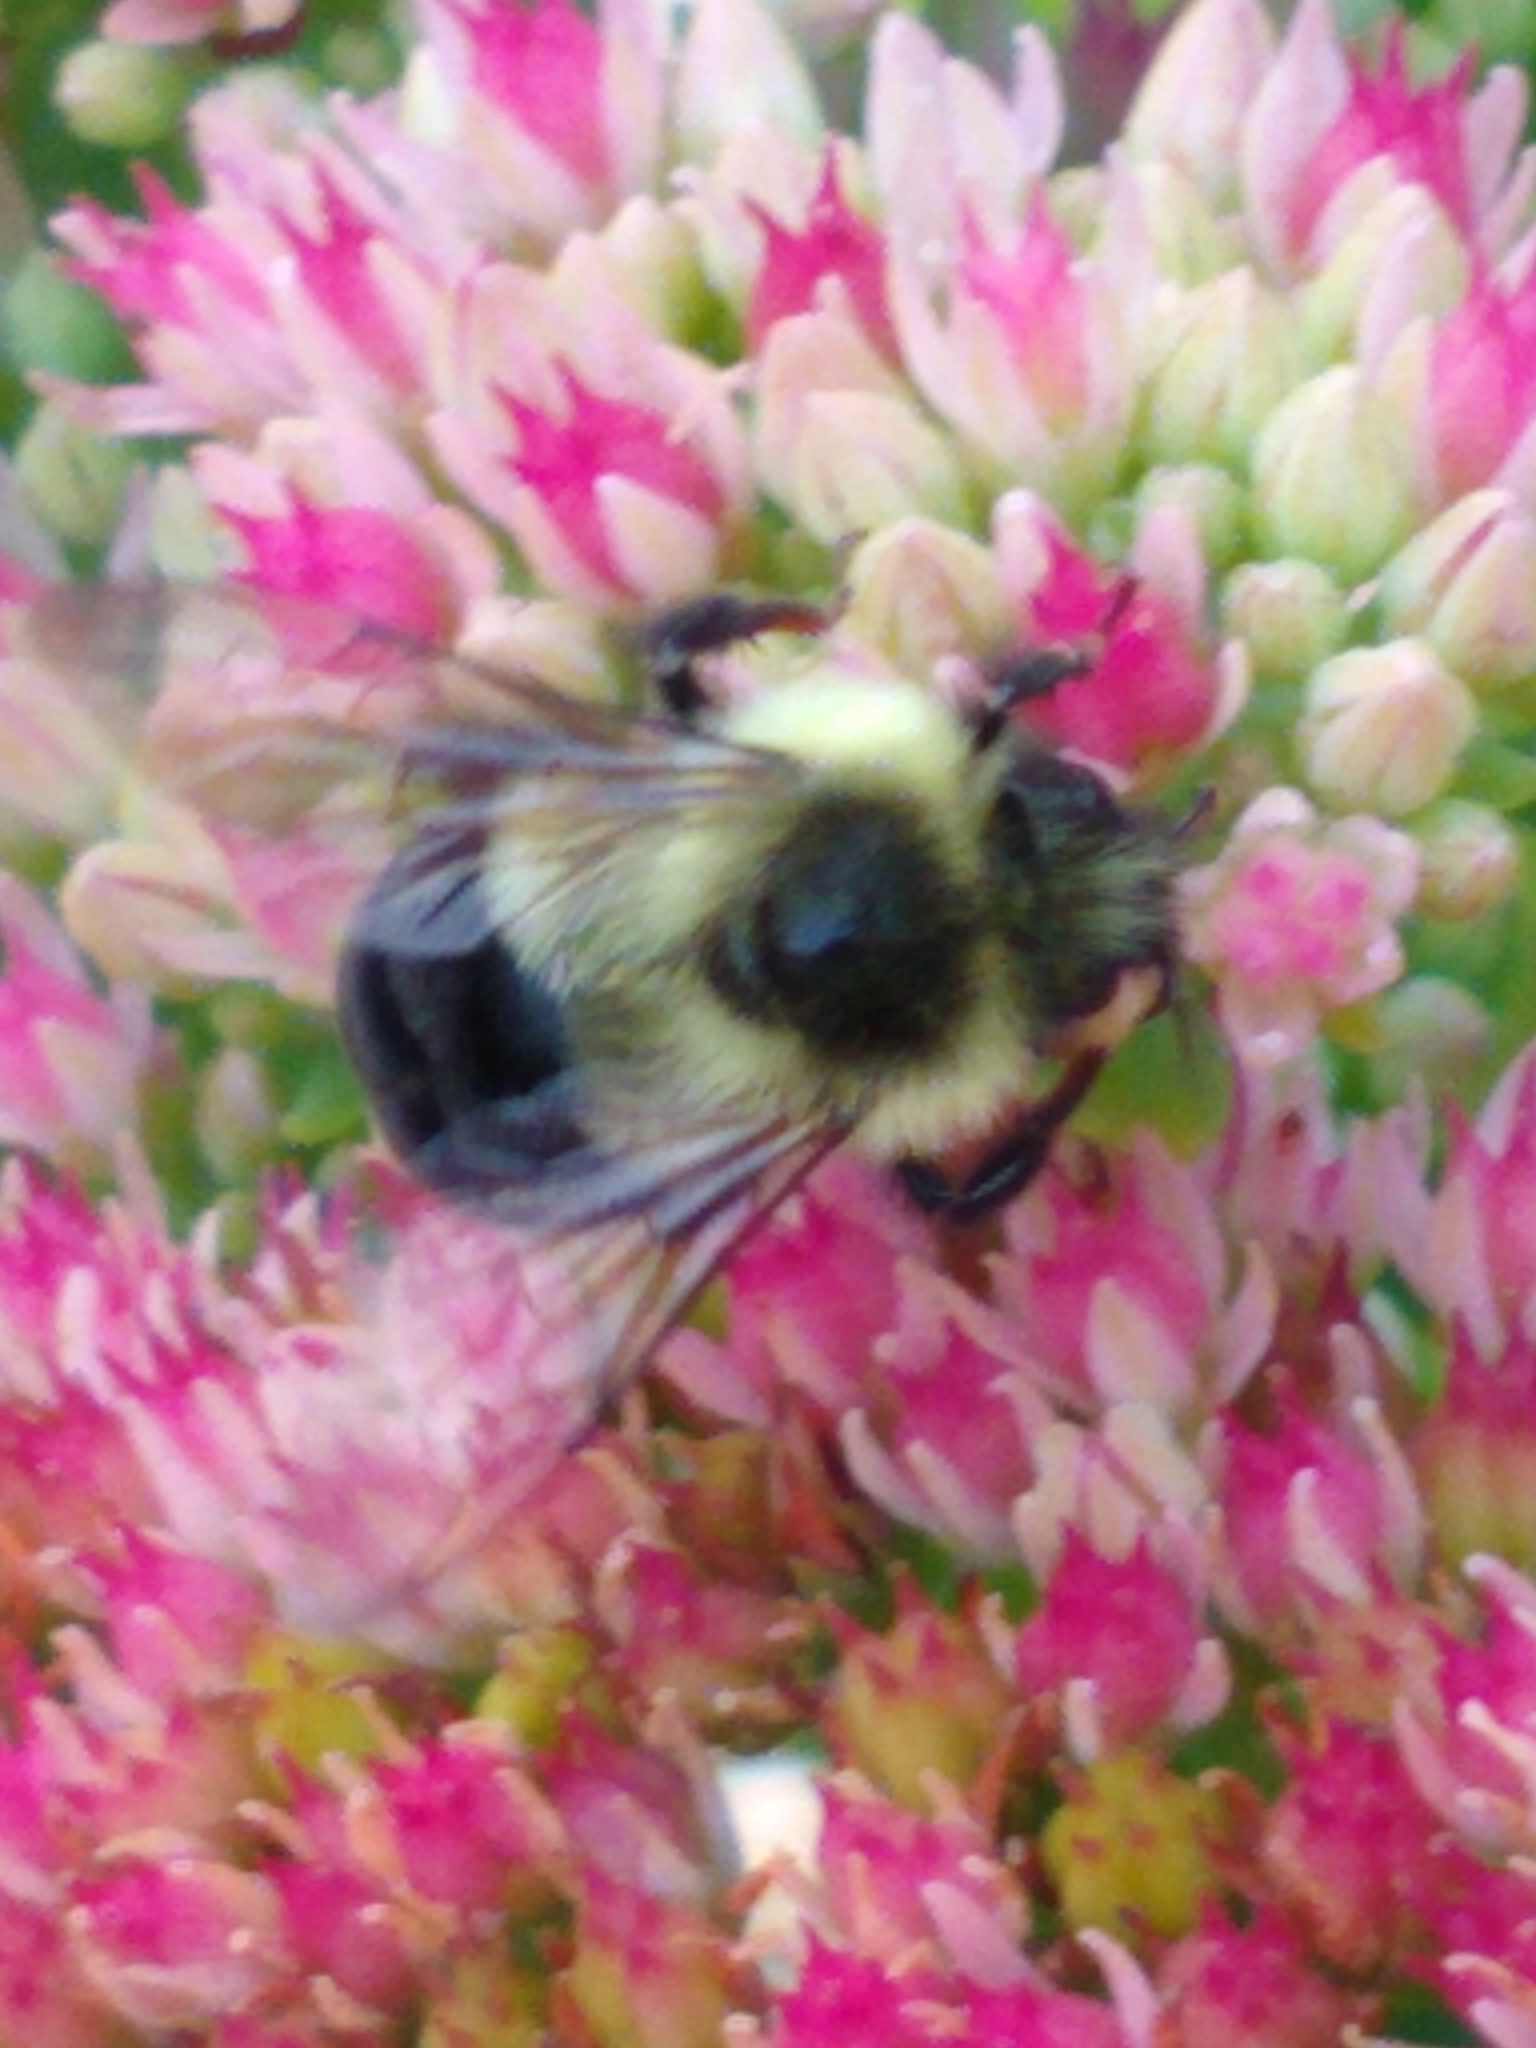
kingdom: Animalia
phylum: Arthropoda
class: Insecta
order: Hymenoptera
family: Apidae
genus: Bombus
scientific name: Bombus impatiens
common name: Common eastern bumble bee
